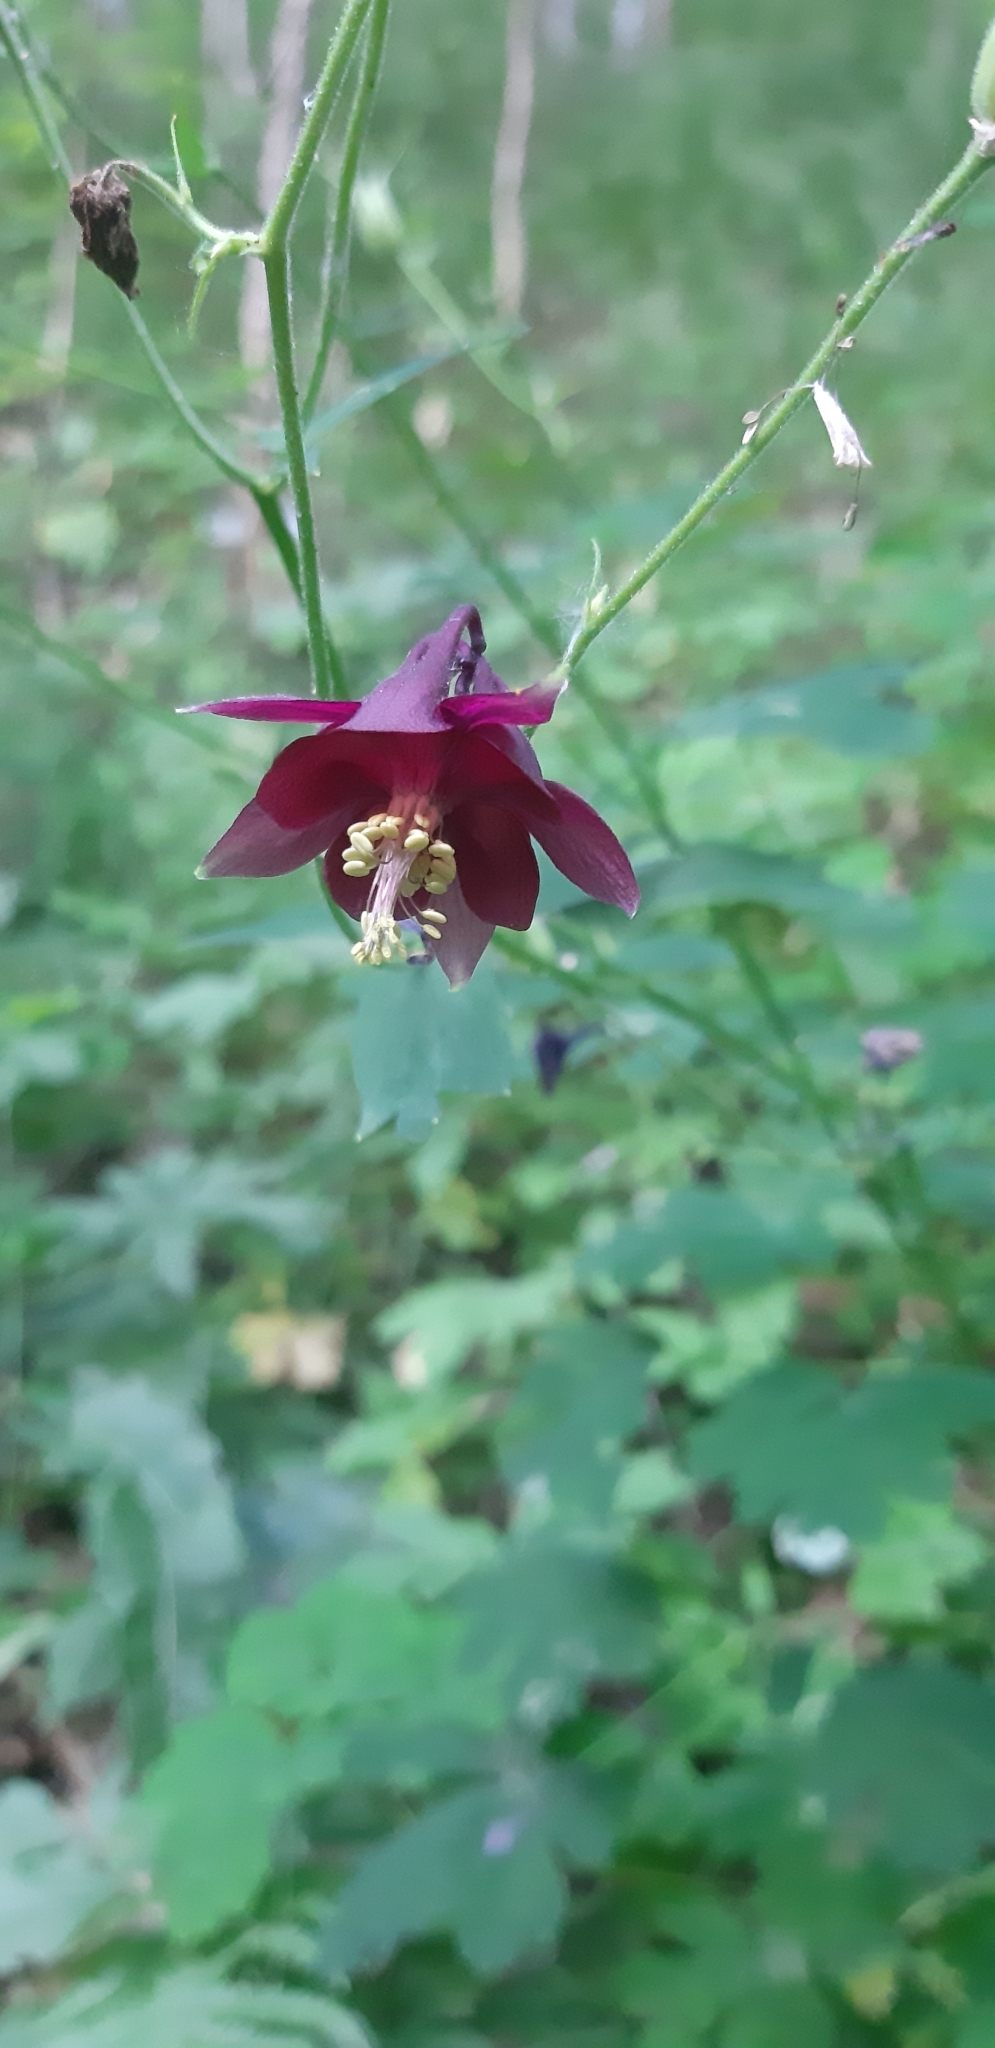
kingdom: Plantae
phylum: Tracheophyta
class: Magnoliopsida
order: Ranunculales
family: Ranunculaceae
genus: Aquilegia
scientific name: Aquilegia atrata
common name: Dark columbine
